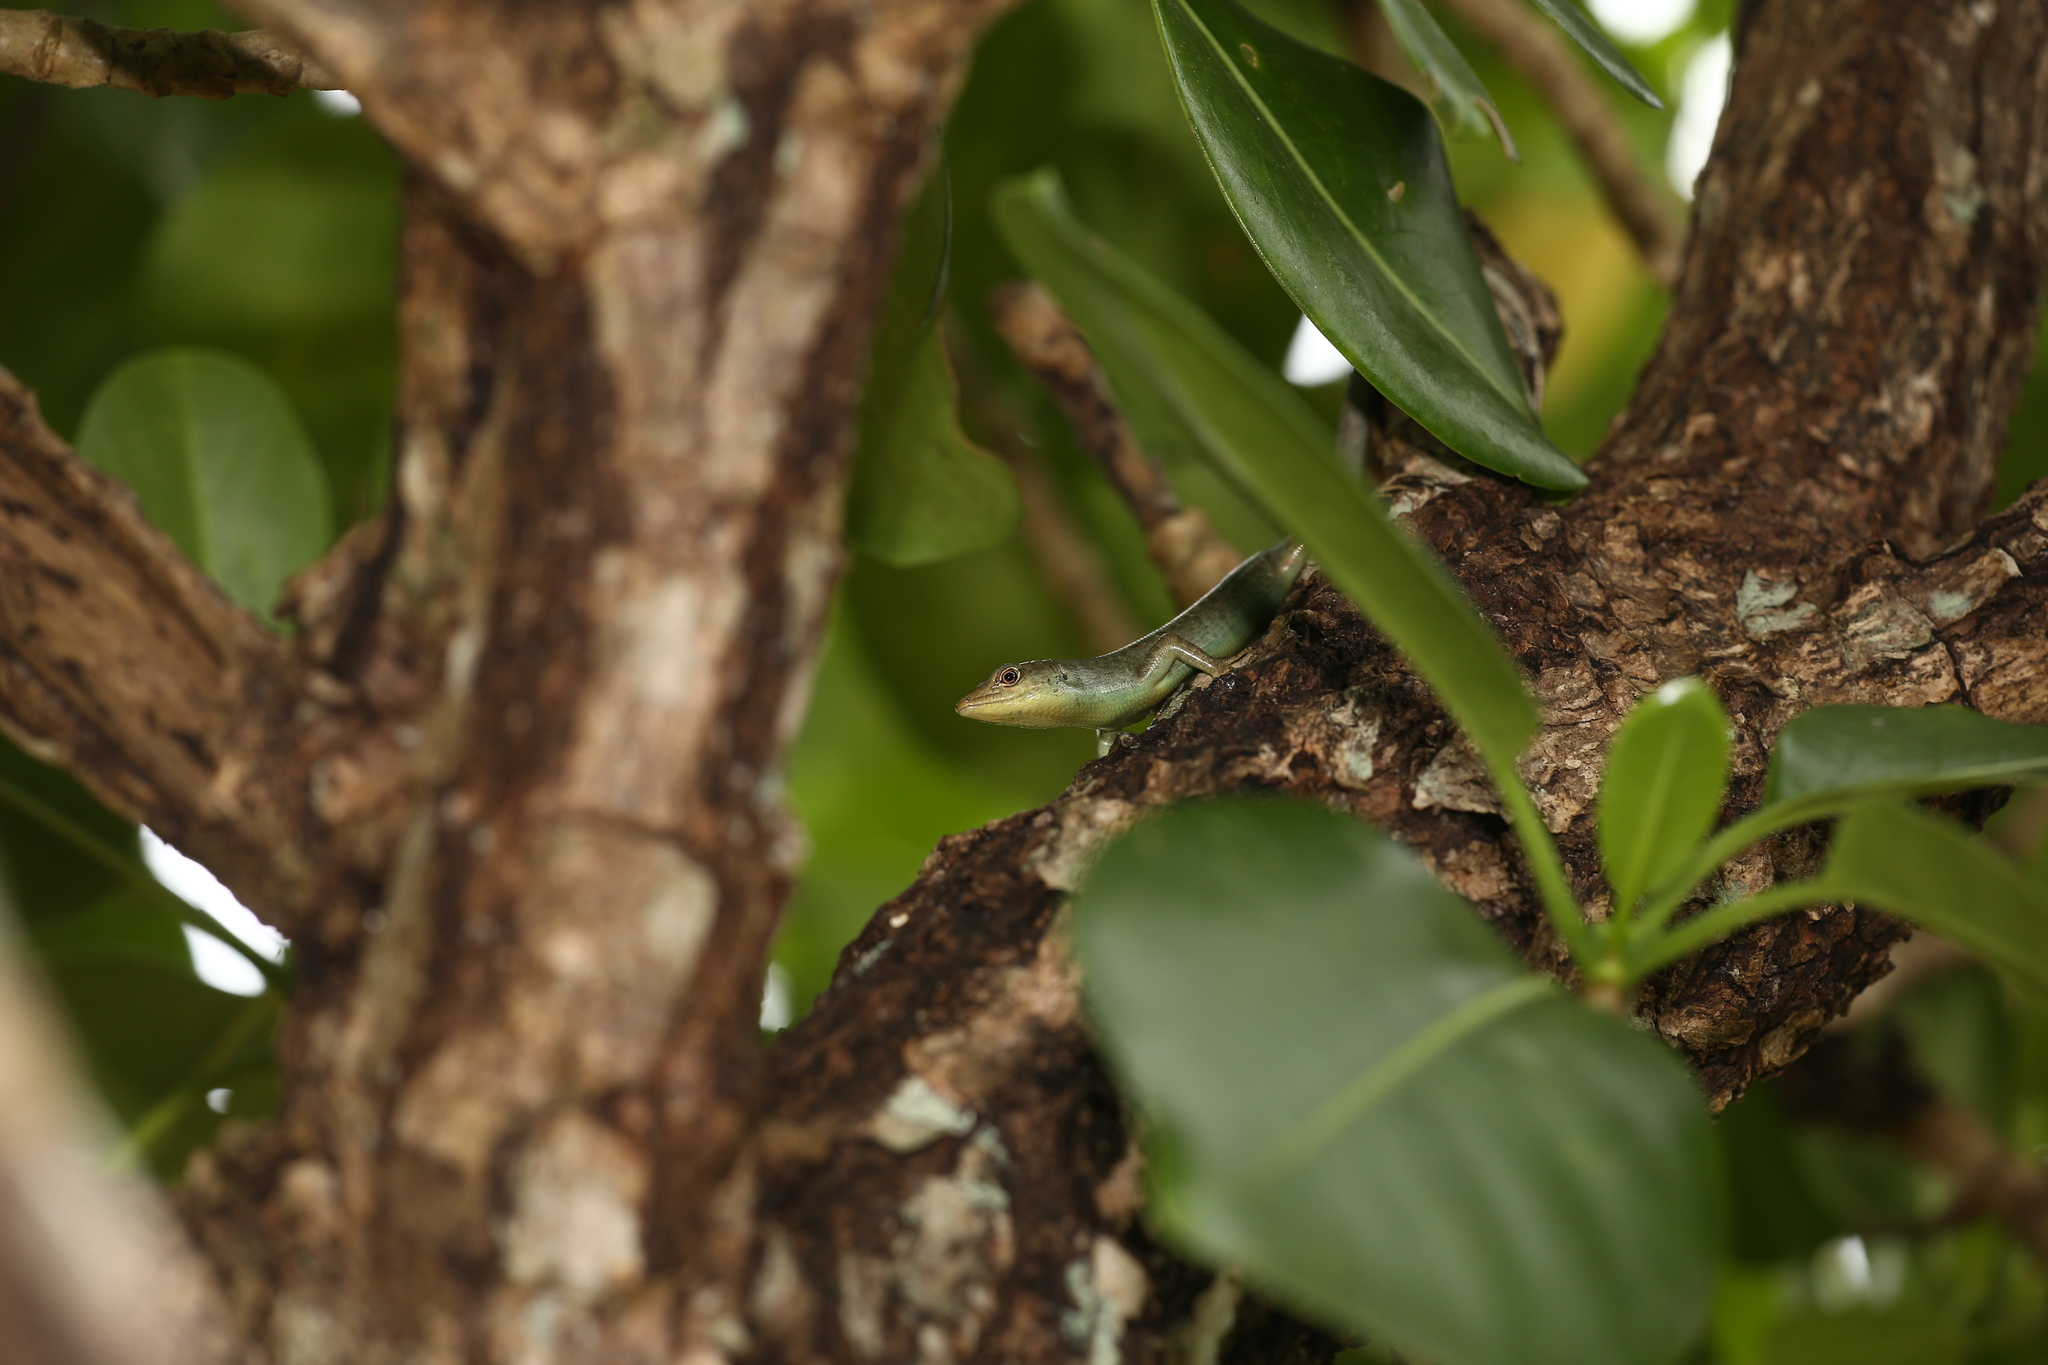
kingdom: Animalia
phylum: Chordata
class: Squamata
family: Scincidae
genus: Emoia
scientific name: Emoia loyaltiensis
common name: Roux's emo skink
